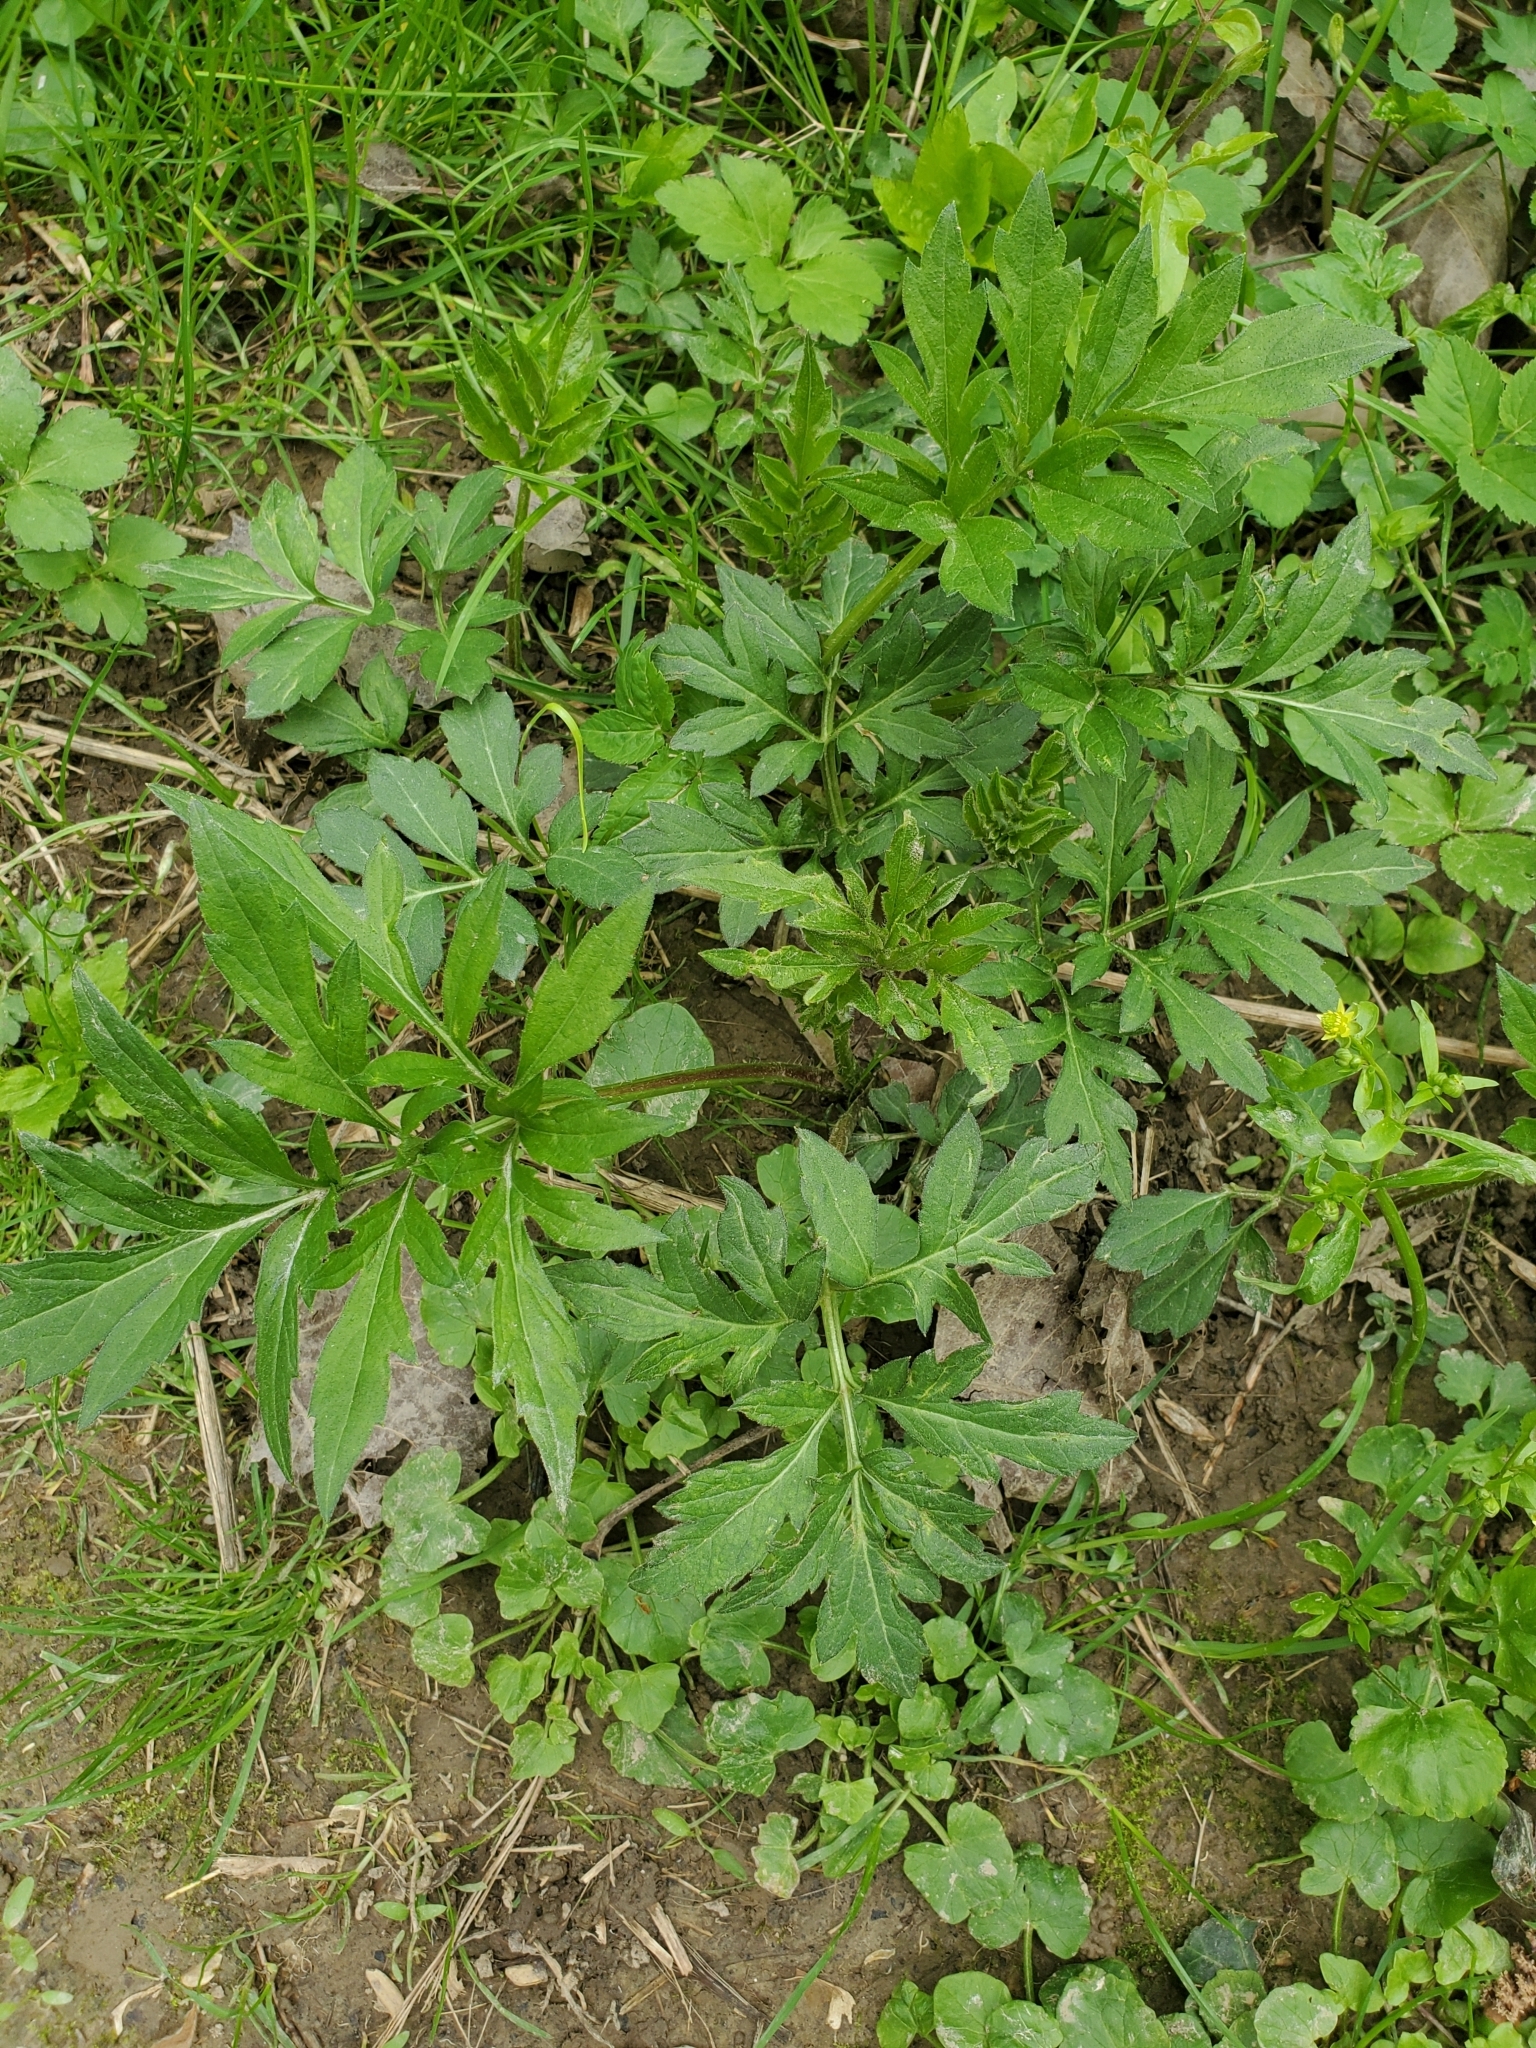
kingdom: Plantae
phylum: Tracheophyta
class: Magnoliopsida
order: Asterales
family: Asteraceae
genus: Rudbeckia
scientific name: Rudbeckia laciniata
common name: Coneflower
